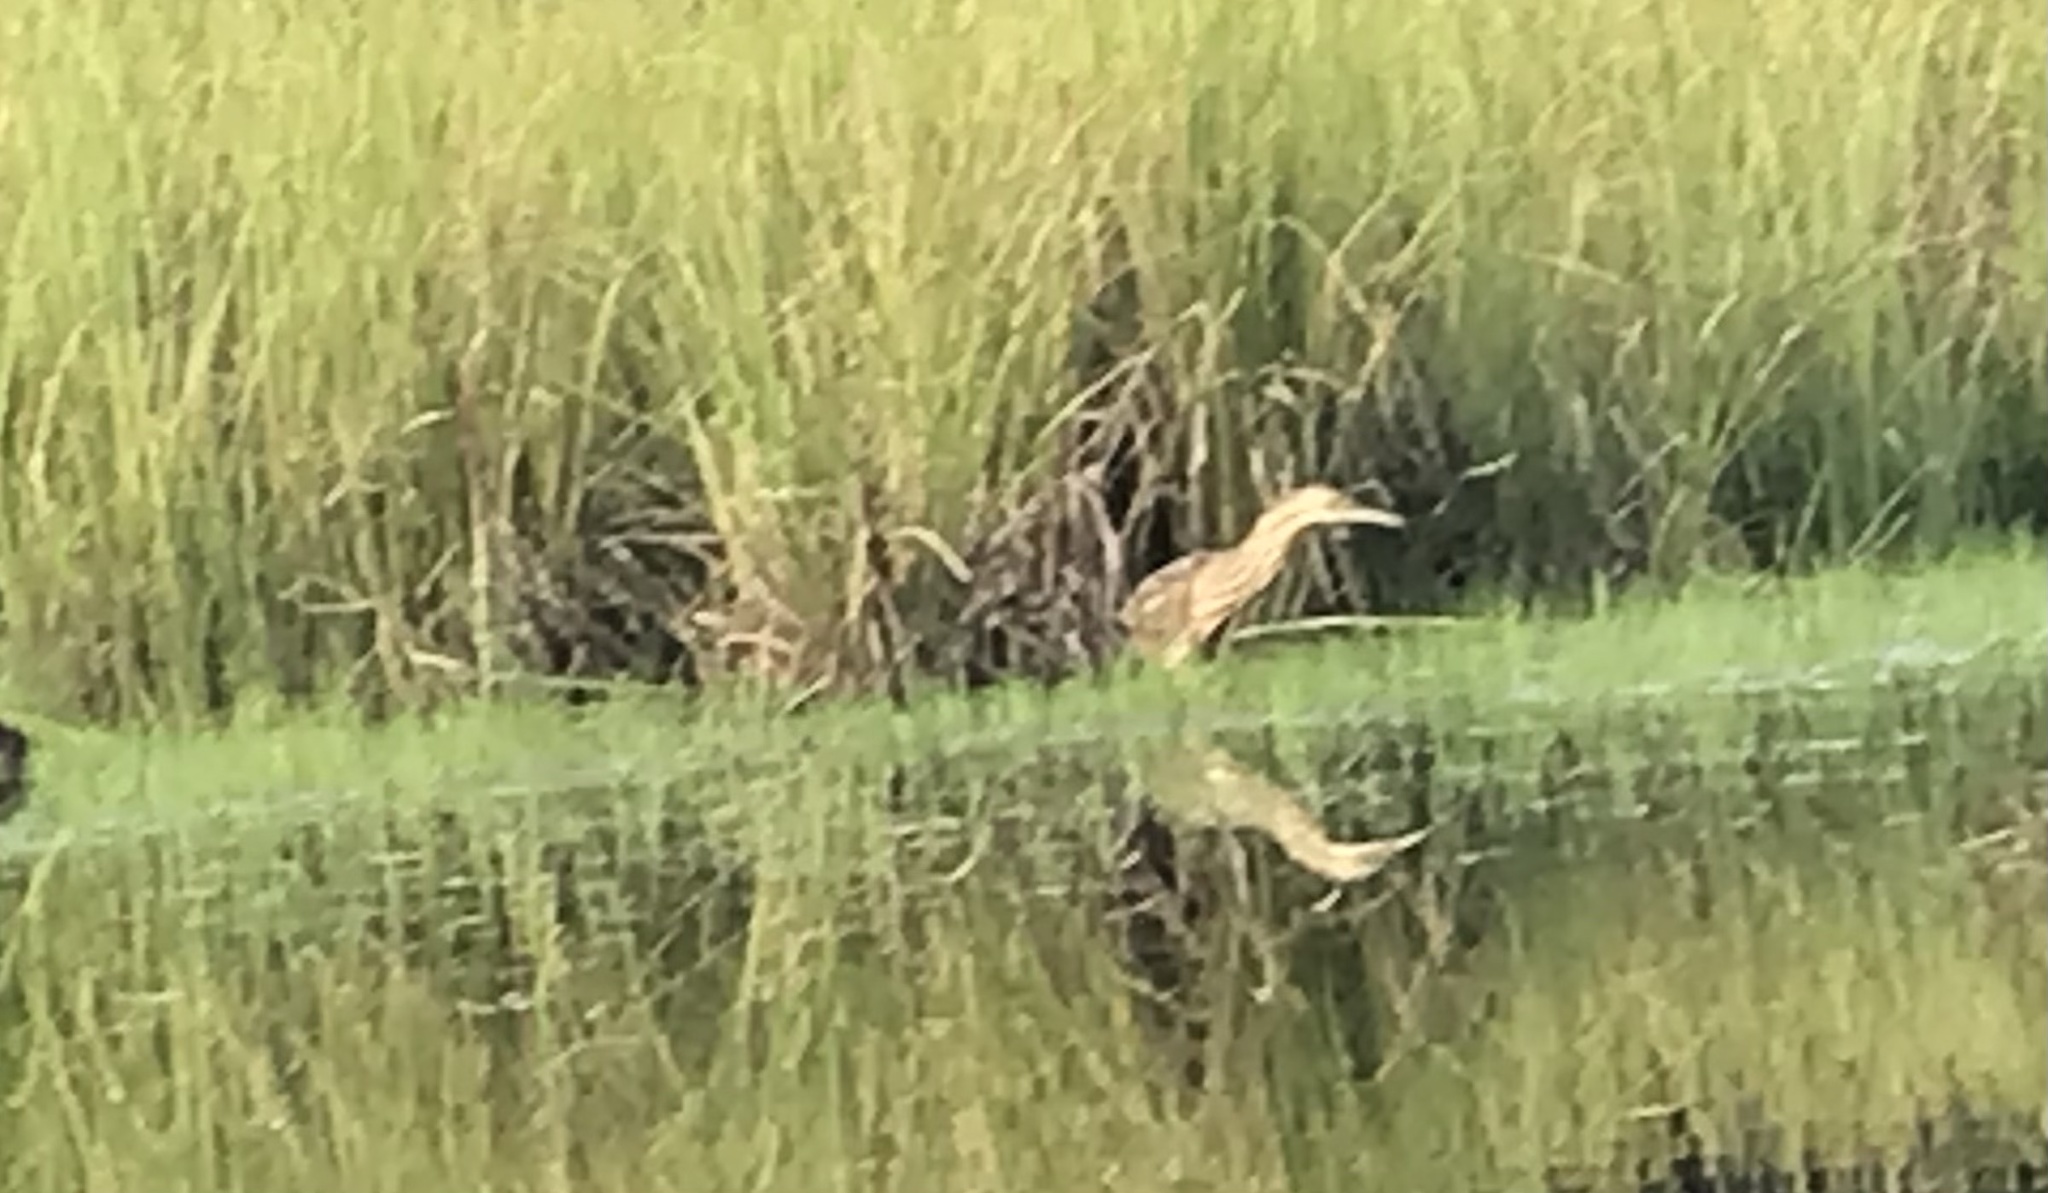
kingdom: Animalia
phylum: Chordata
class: Aves
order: Pelecaniformes
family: Ardeidae
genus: Botaurus
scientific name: Botaurus lentiginosus
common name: American bittern
